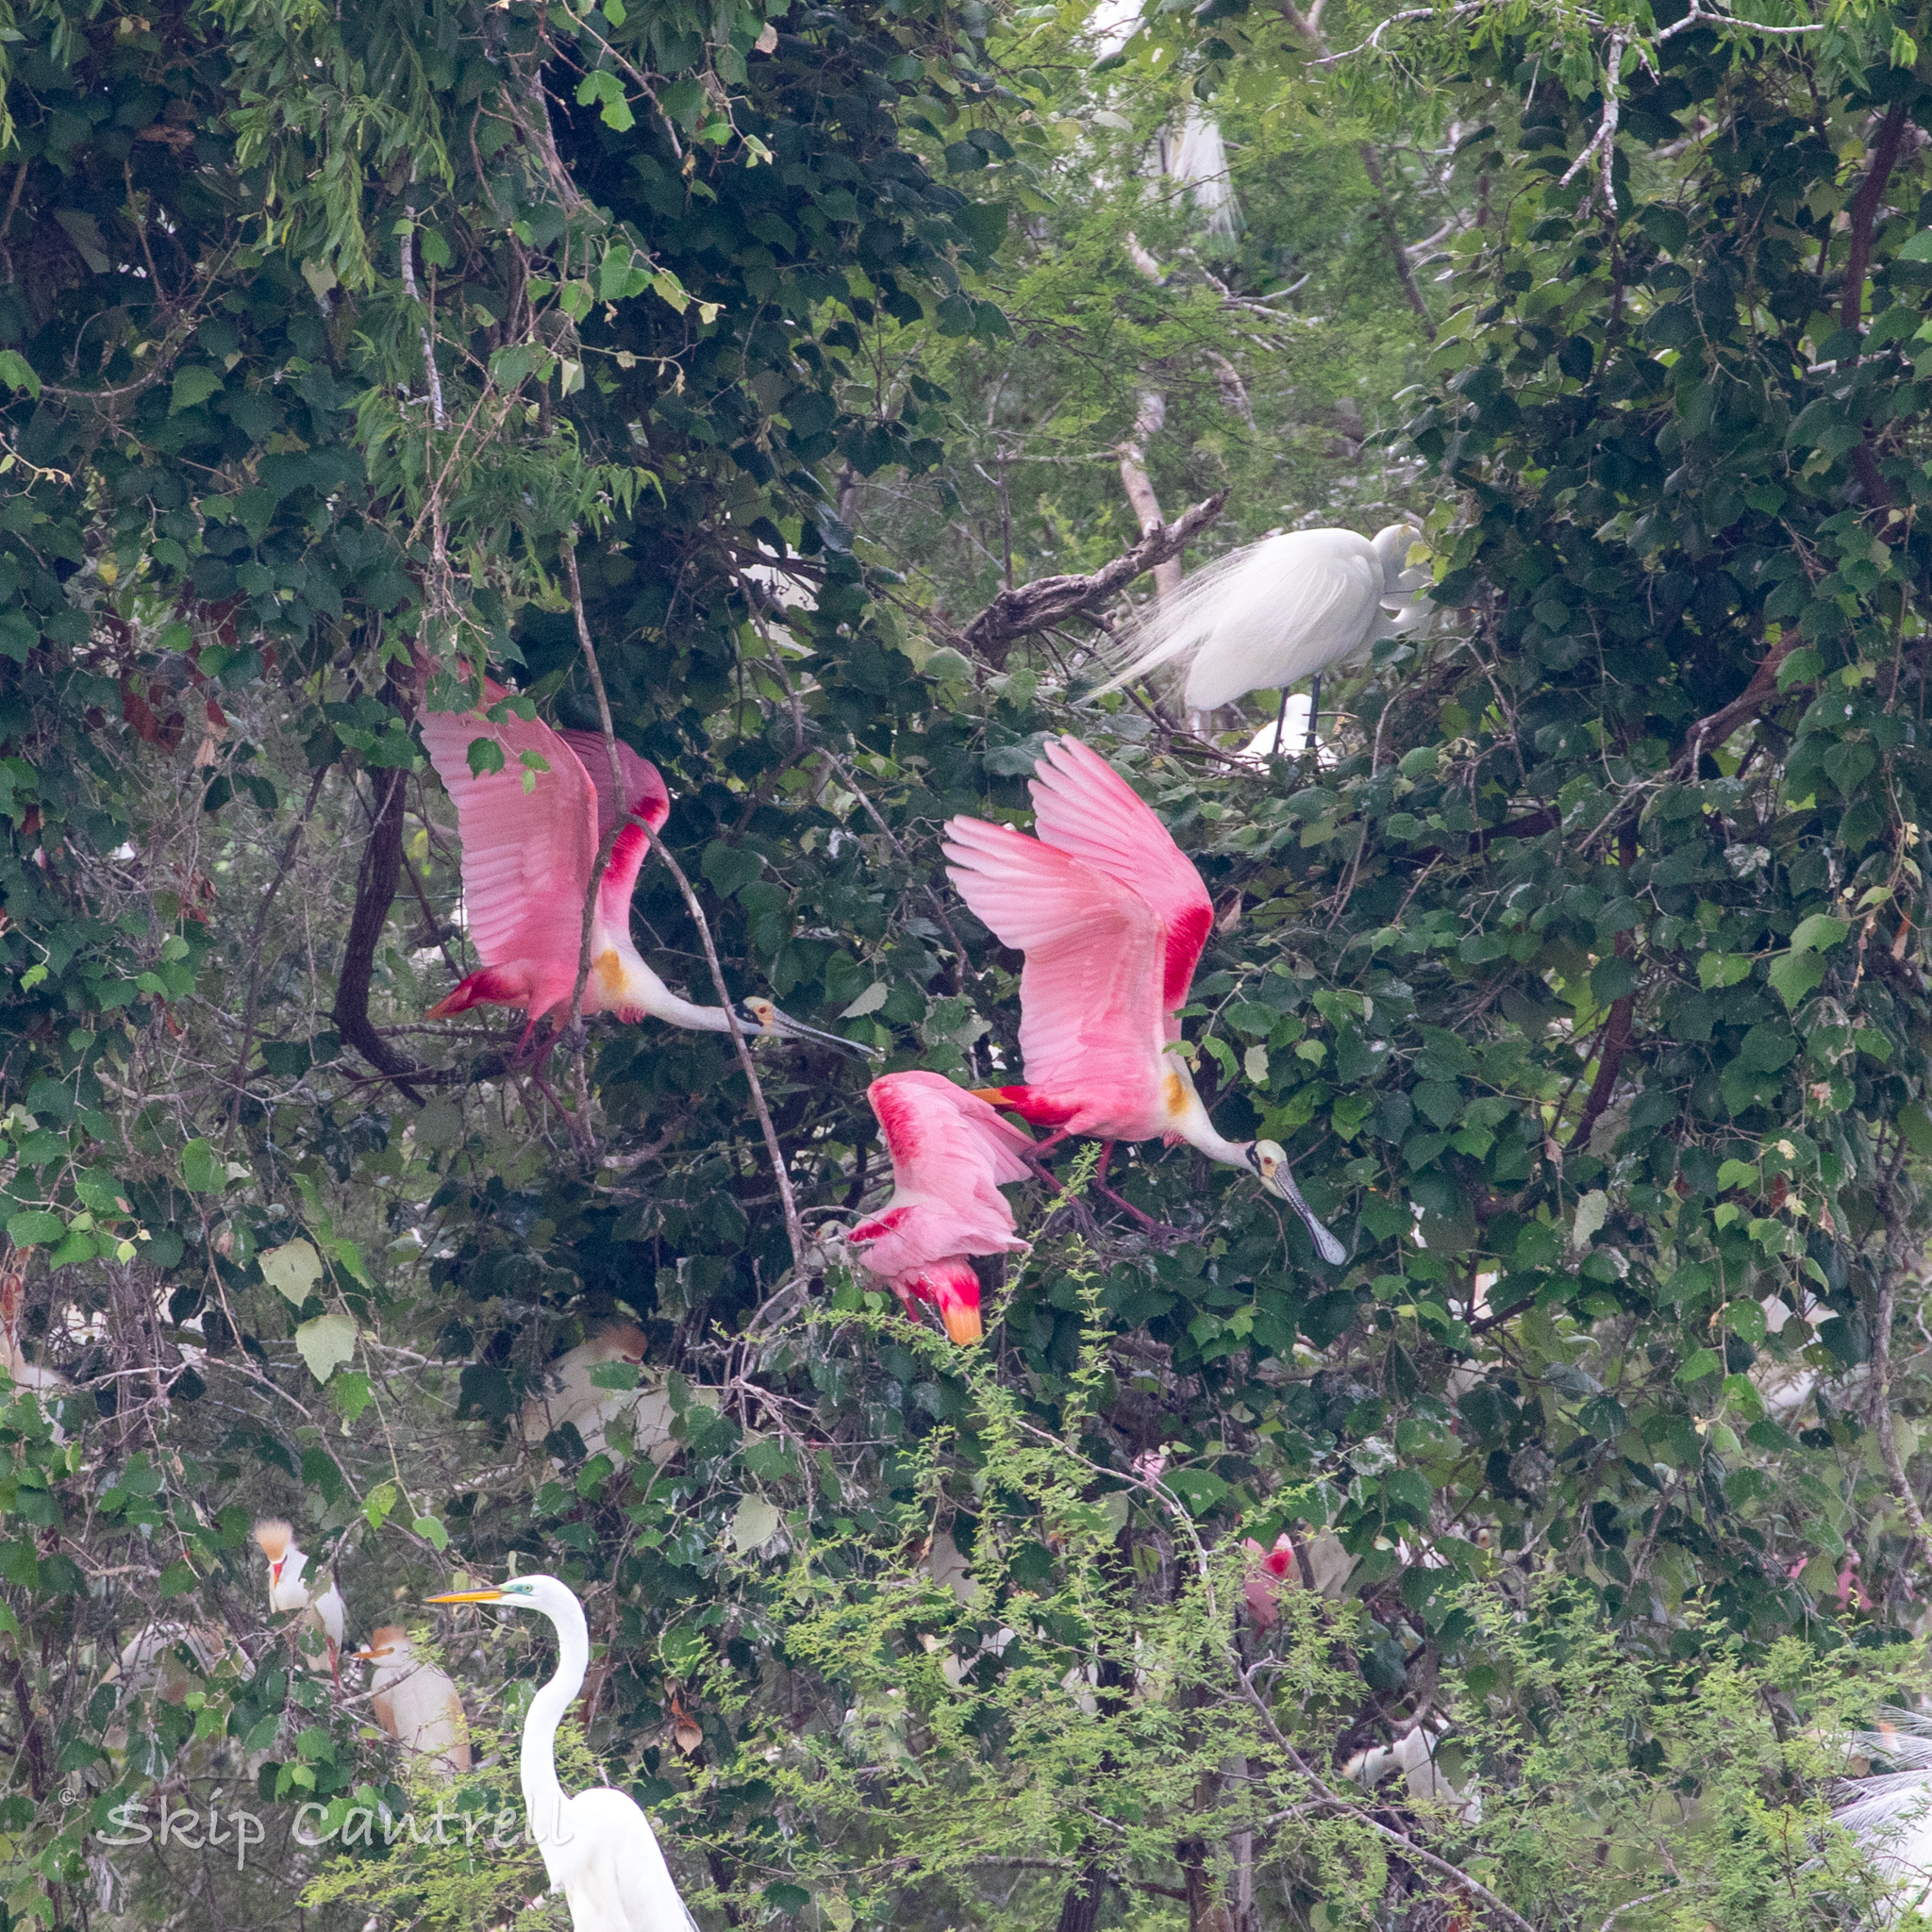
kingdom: Animalia
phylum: Chordata
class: Aves
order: Pelecaniformes
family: Threskiornithidae
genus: Platalea
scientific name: Platalea ajaja
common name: Roseate spoonbill
